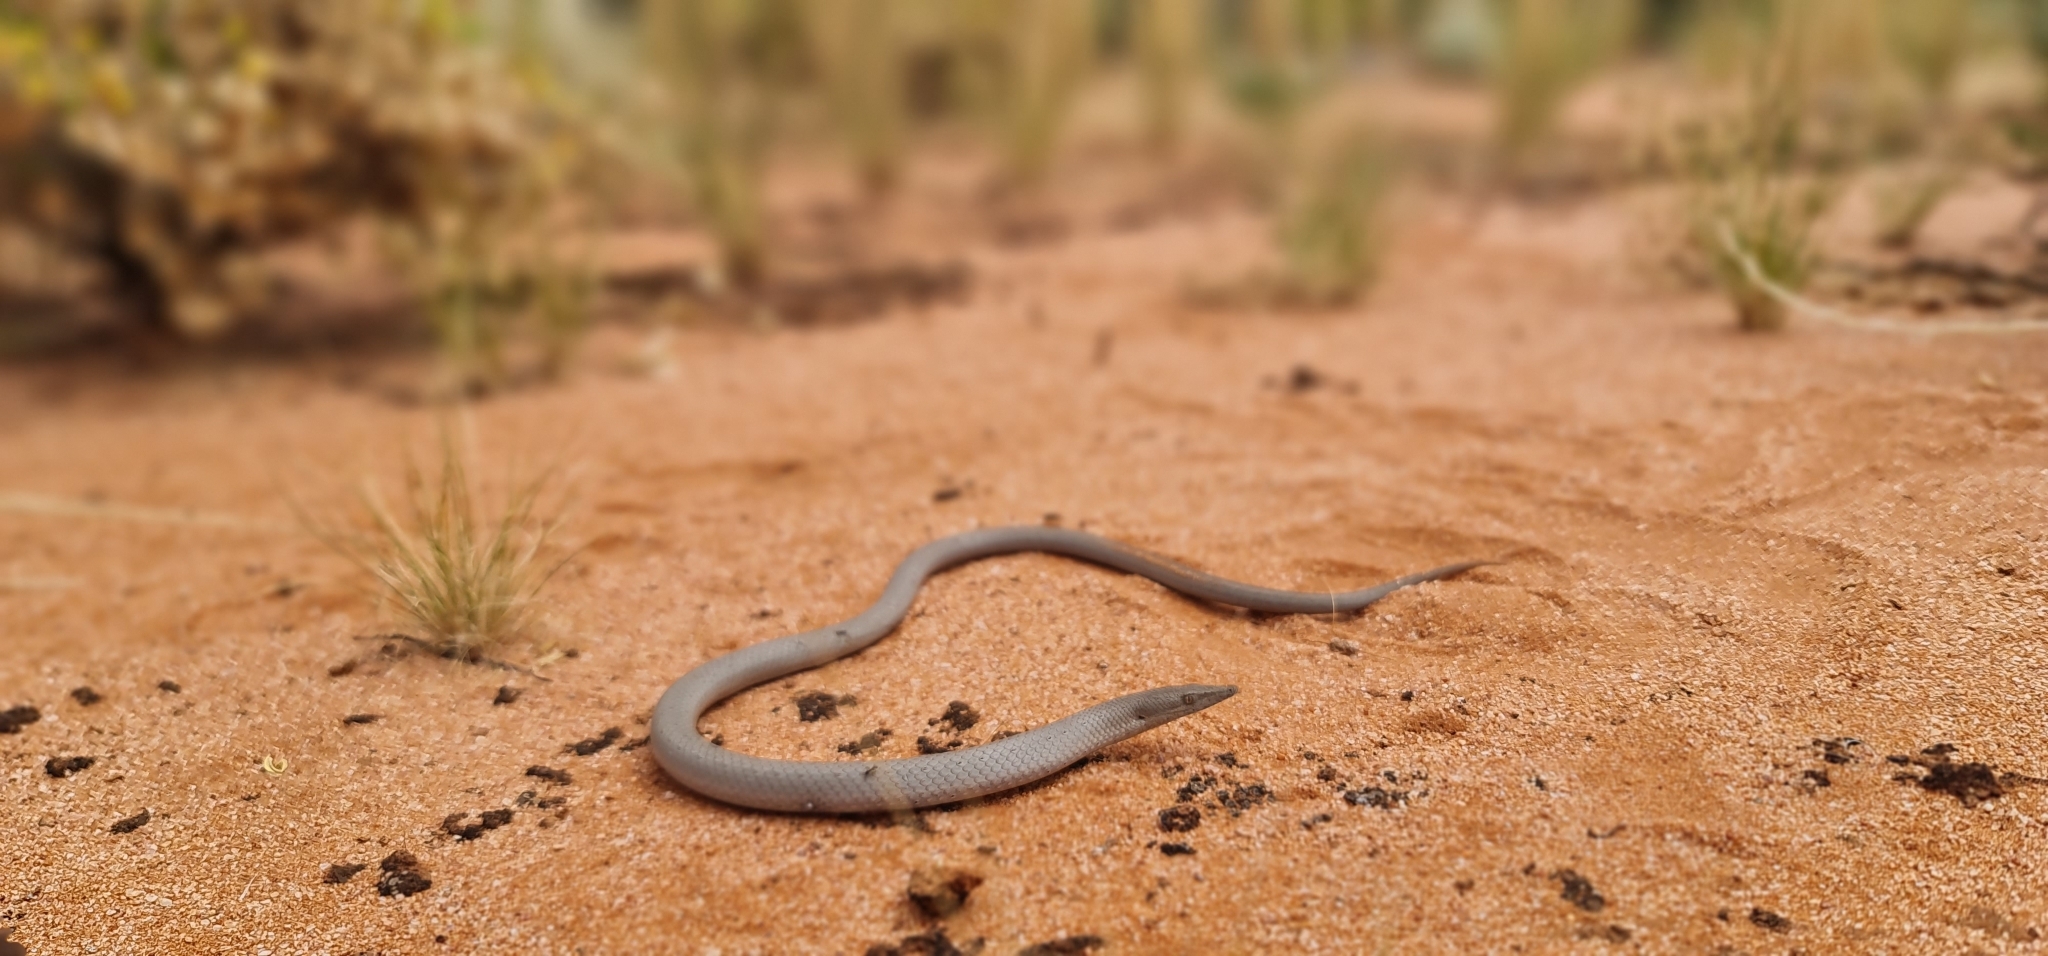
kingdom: Animalia
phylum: Chordata
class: Squamata
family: Pygopodidae
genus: Lialis
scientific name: Lialis burtonis
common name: Burton's legless lizard
